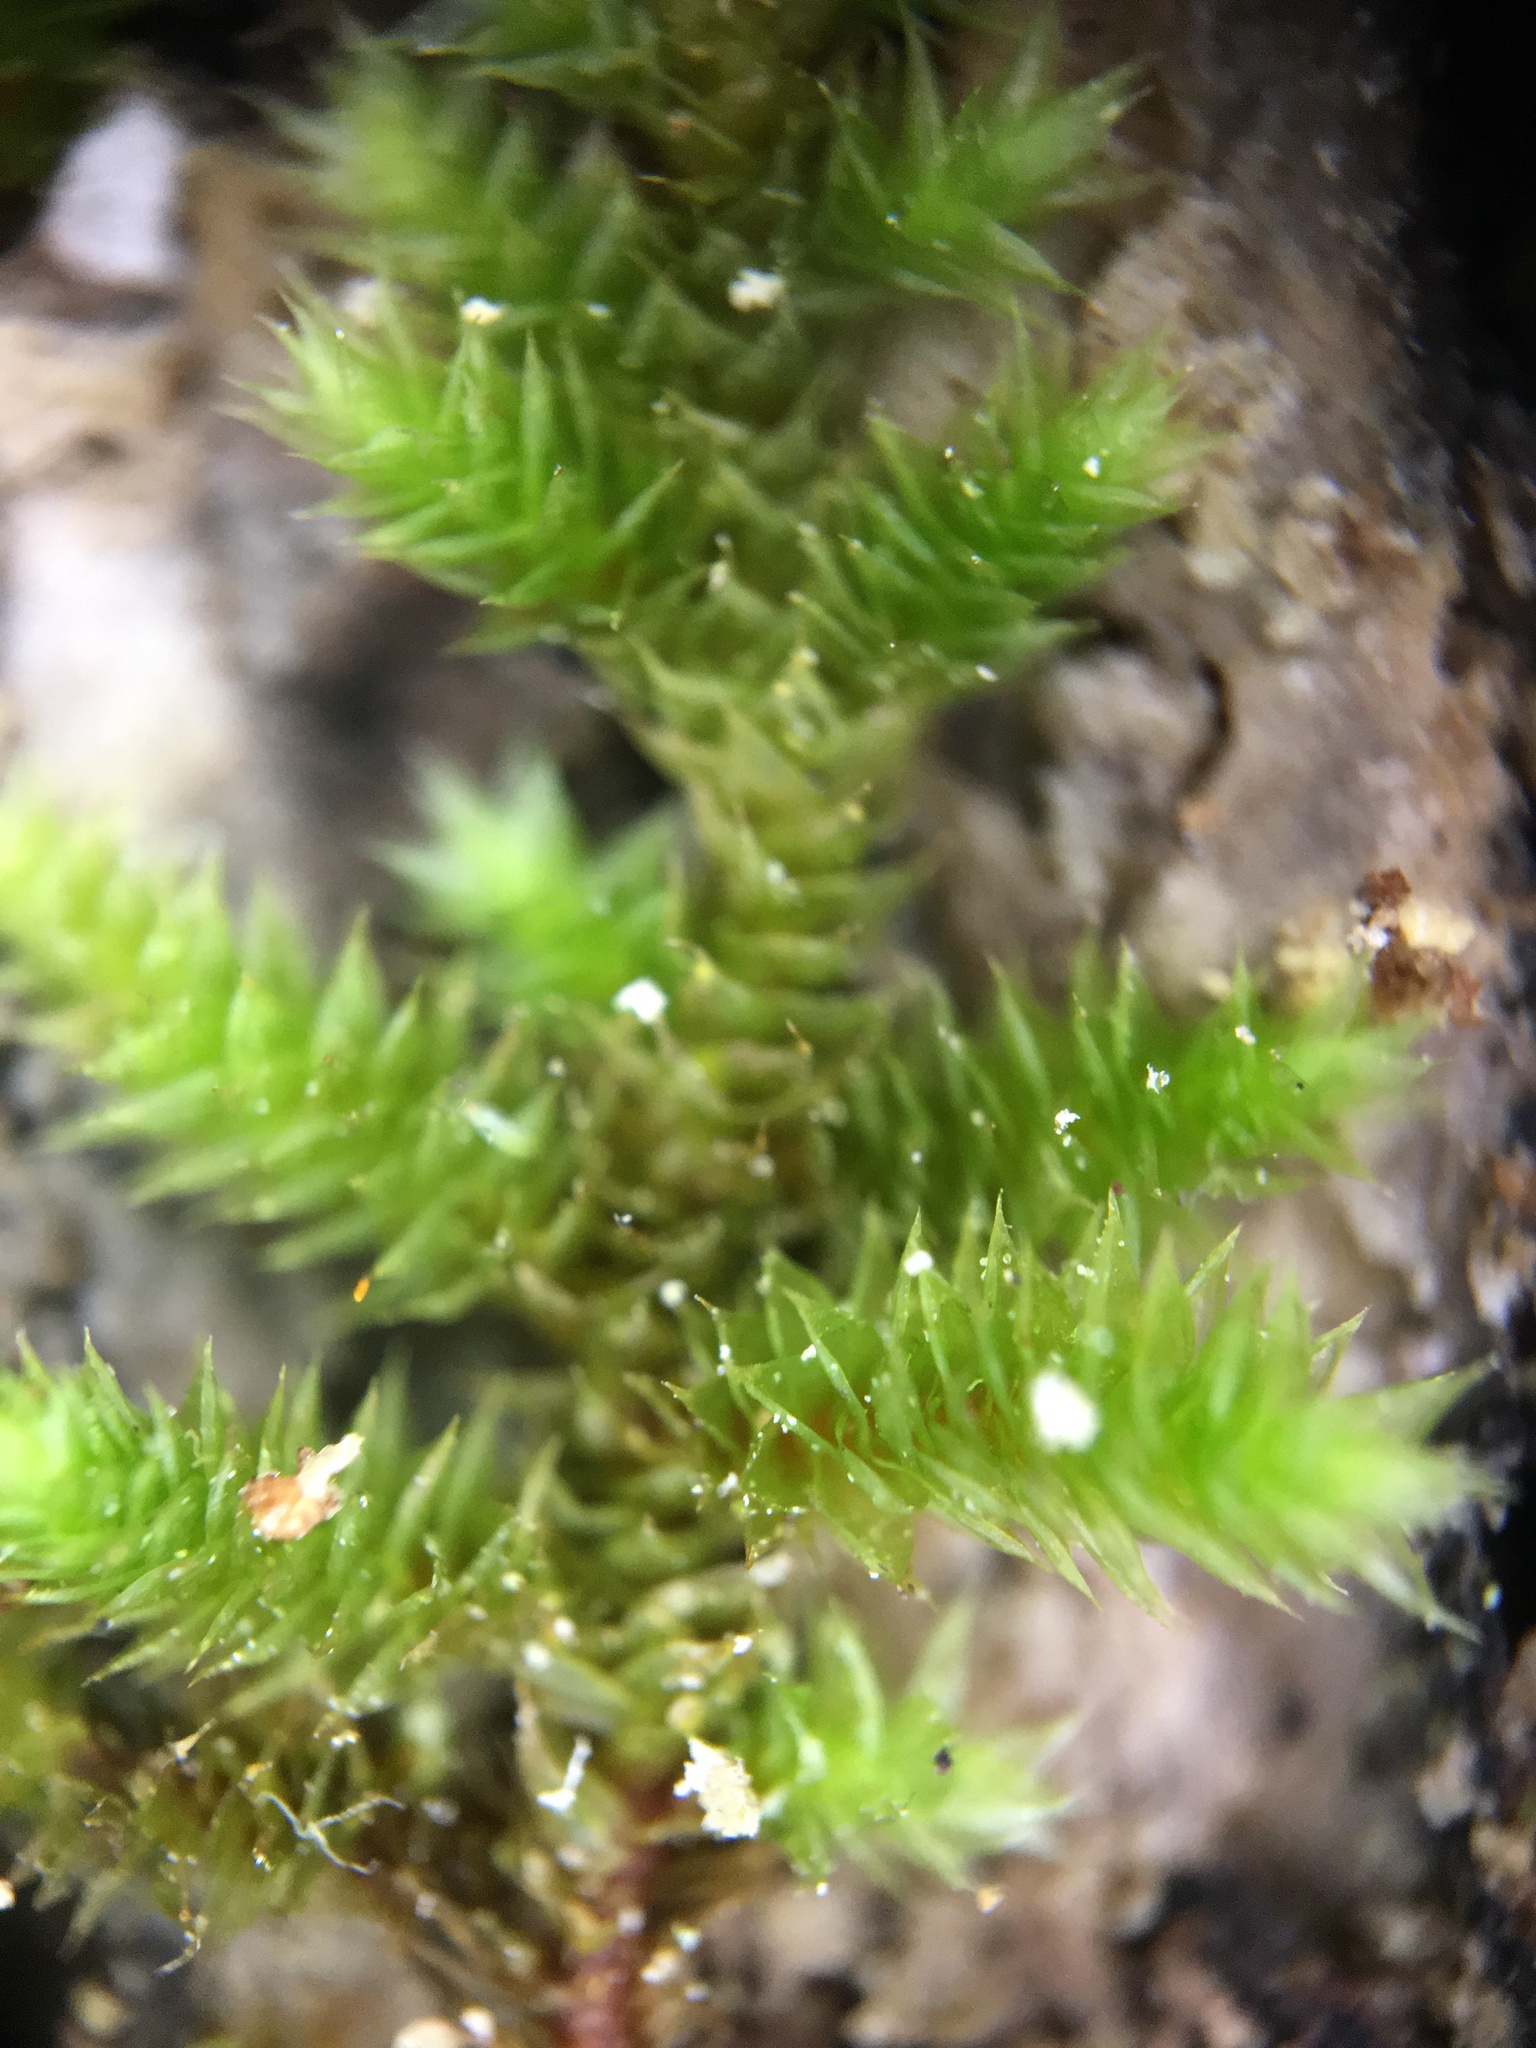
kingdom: Plantae
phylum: Bryophyta
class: Bryopsida
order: Hypnales
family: Leucodontaceae
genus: Leucodon
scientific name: Leucodon julaceus
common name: Smooth hook moss
